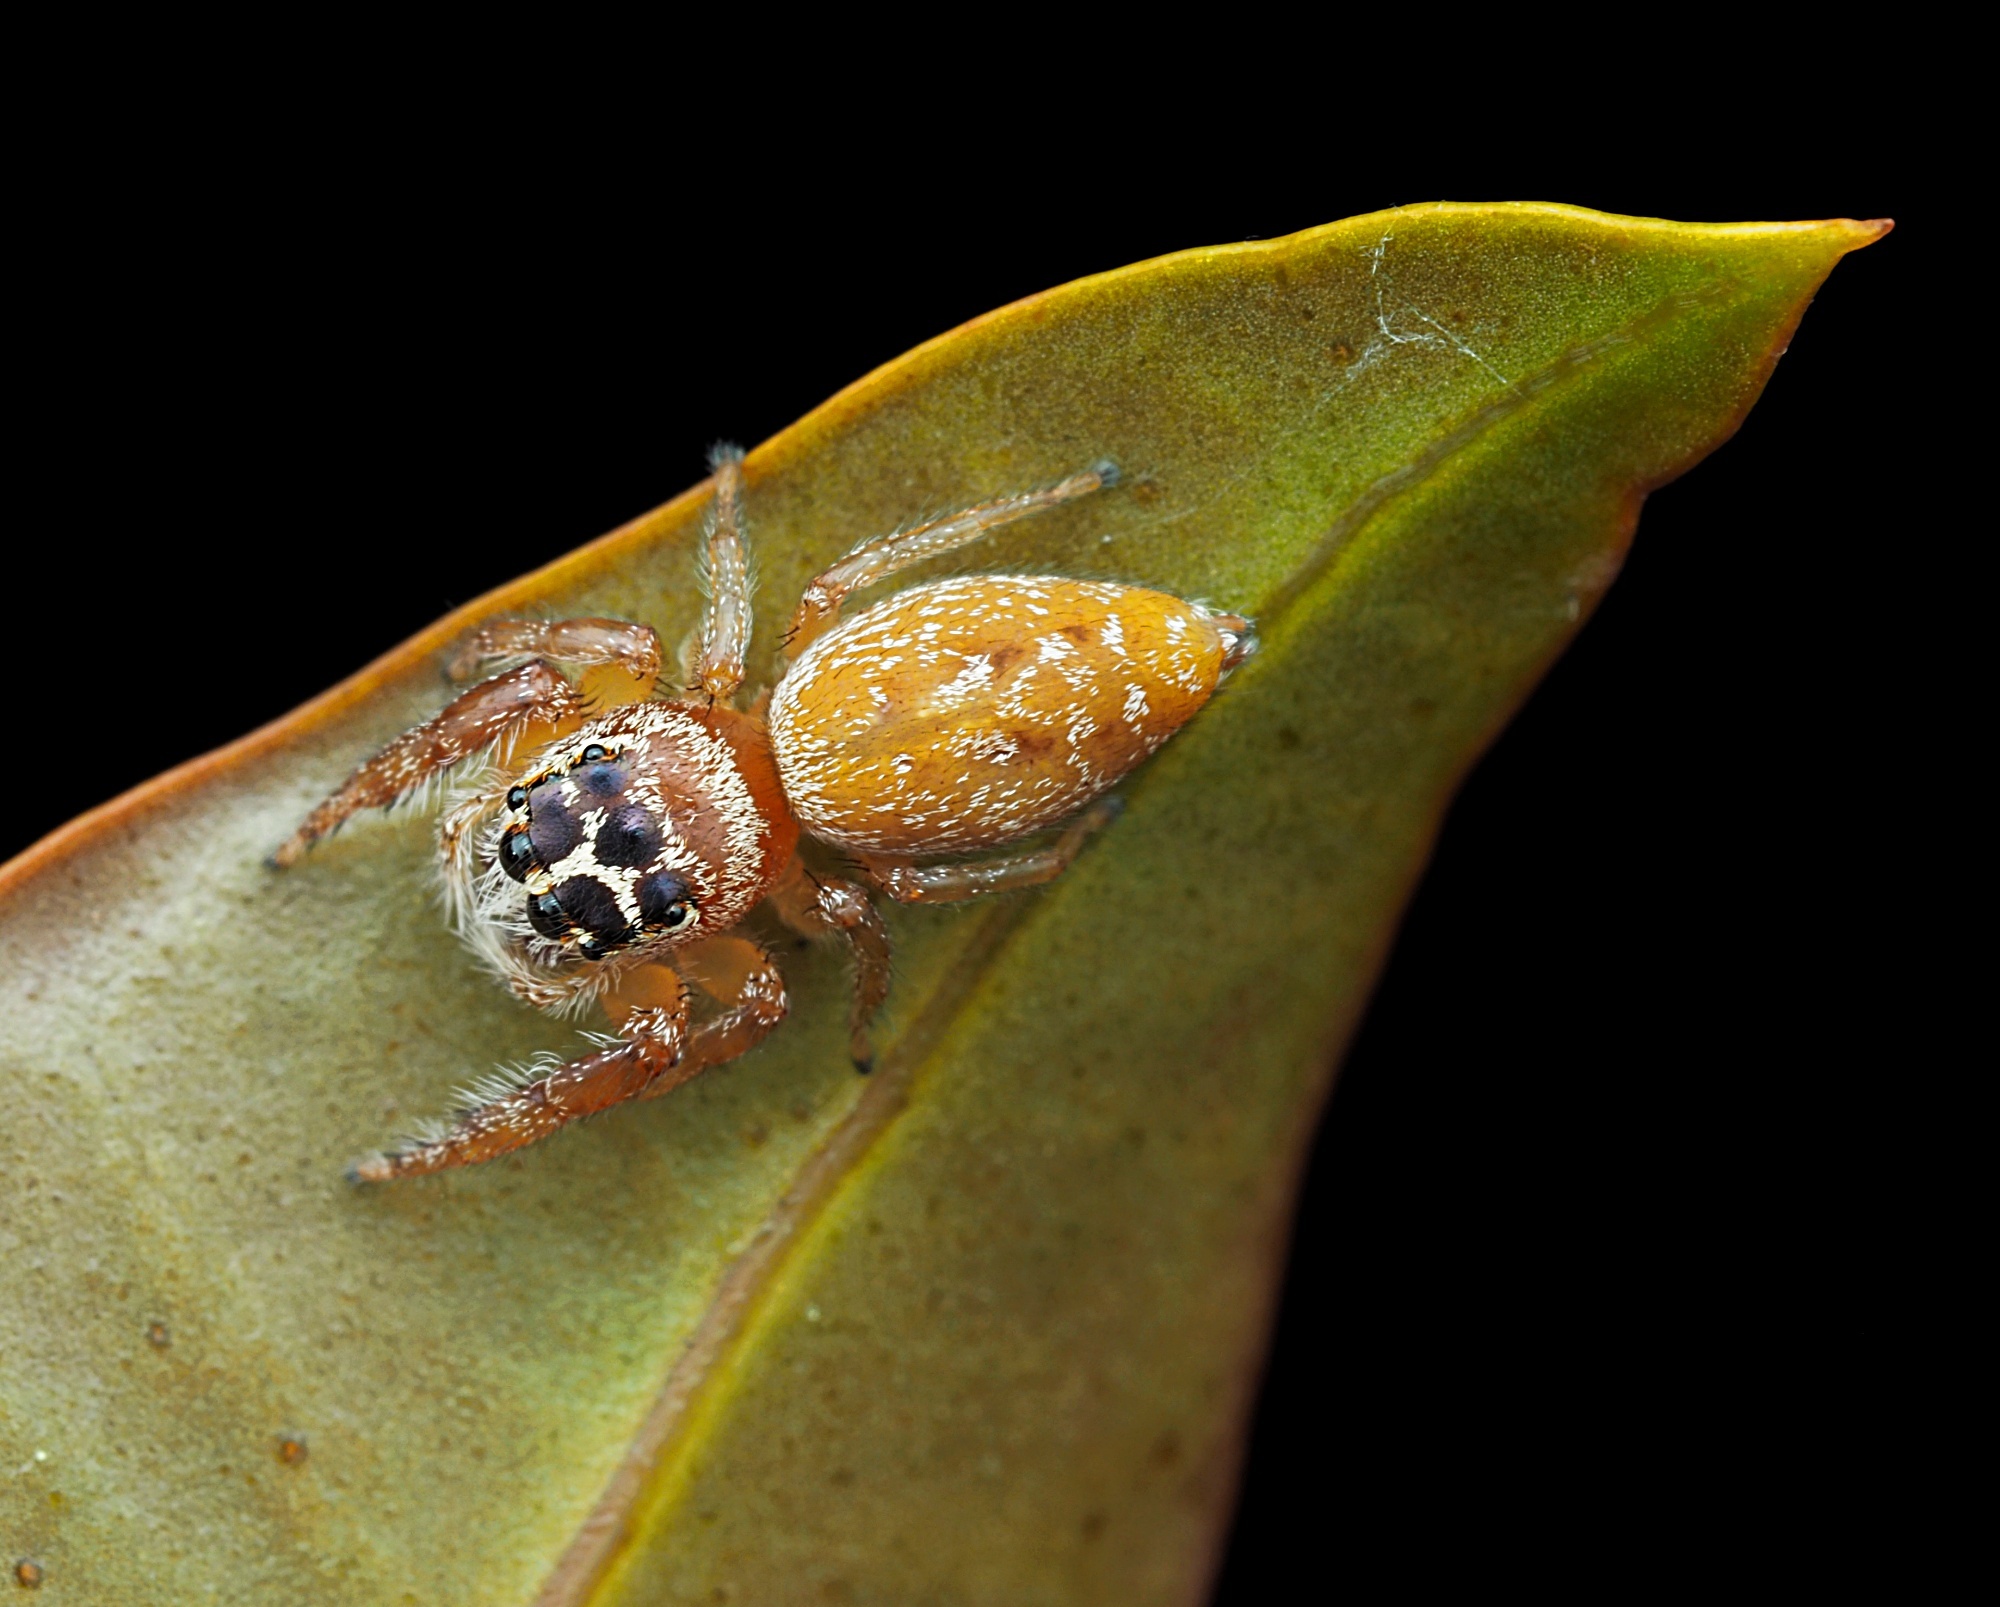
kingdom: Animalia
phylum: Arthropoda
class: Arachnida
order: Araneae
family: Salticidae
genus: Opisthoncus
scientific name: Opisthoncus polyphemus
